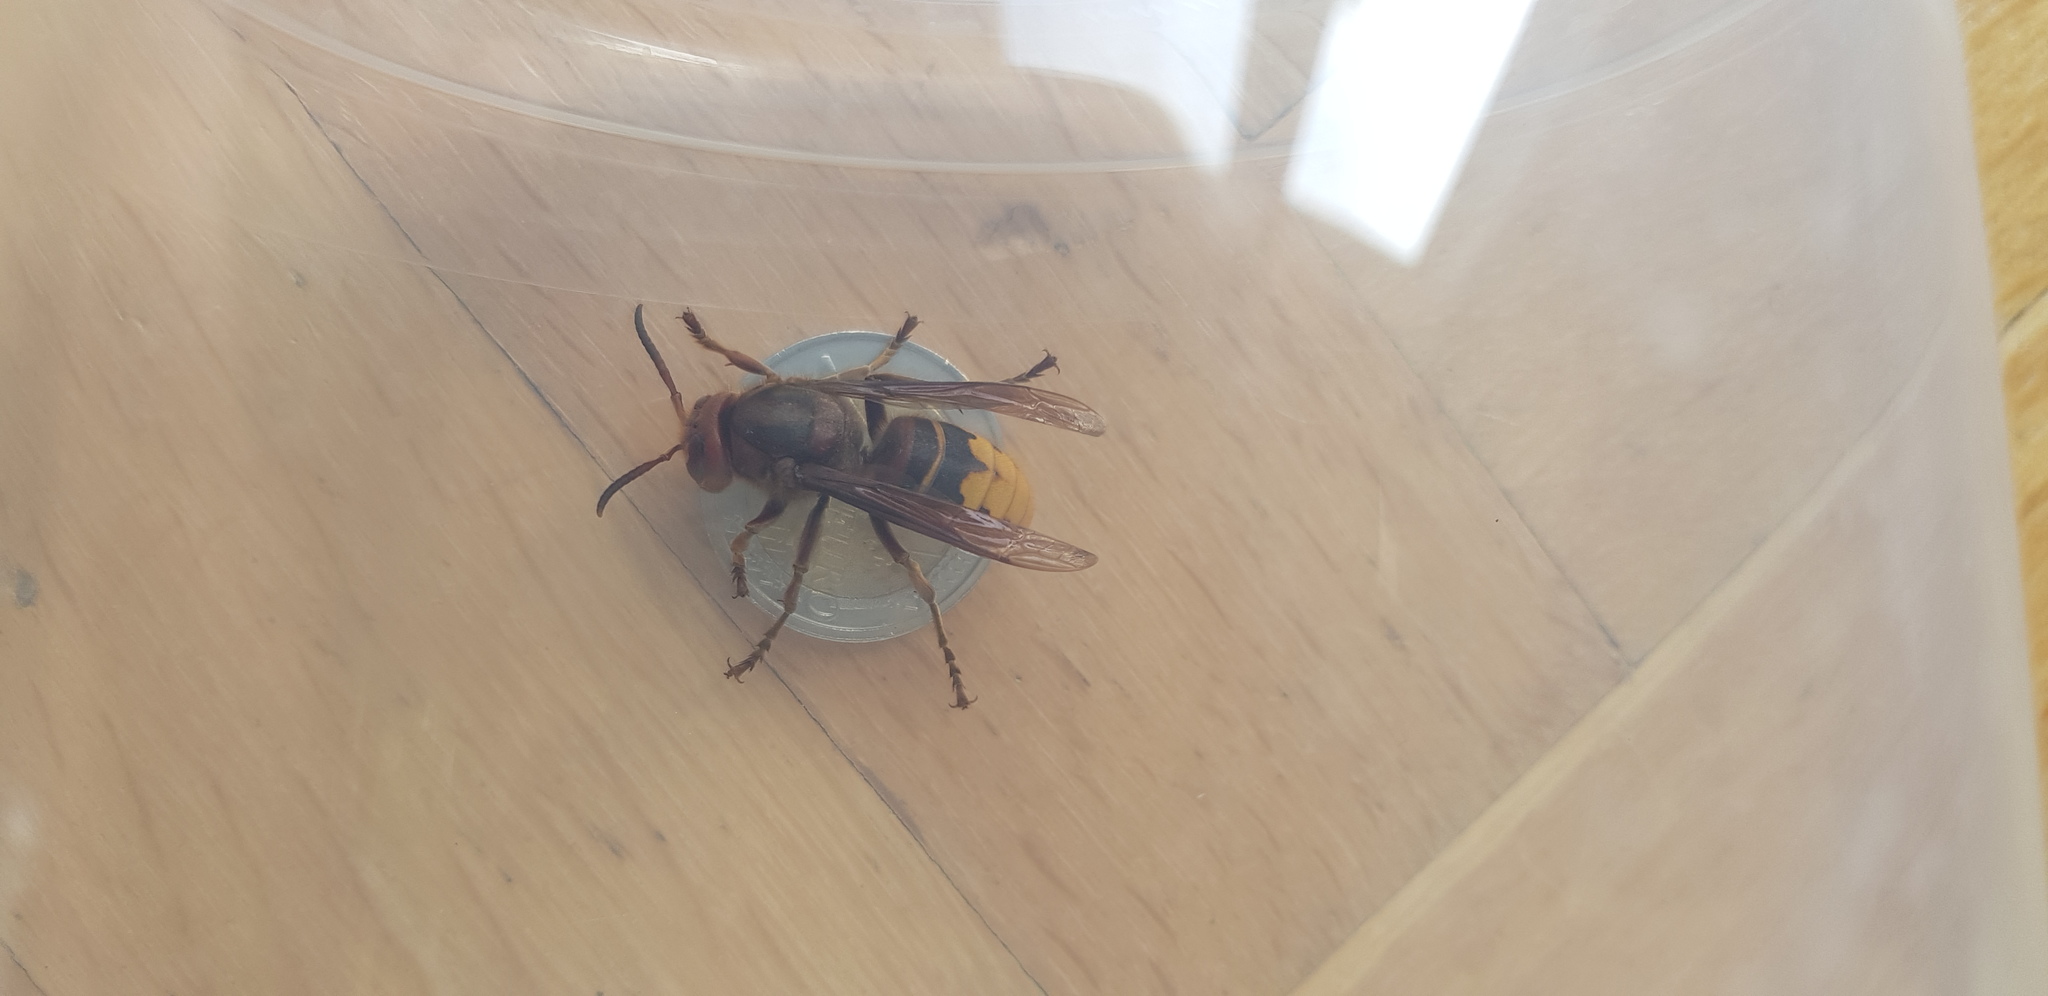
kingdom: Animalia
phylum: Arthropoda
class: Insecta
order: Hymenoptera
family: Vespidae
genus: Vespa
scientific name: Vespa crabro
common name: Hornet
